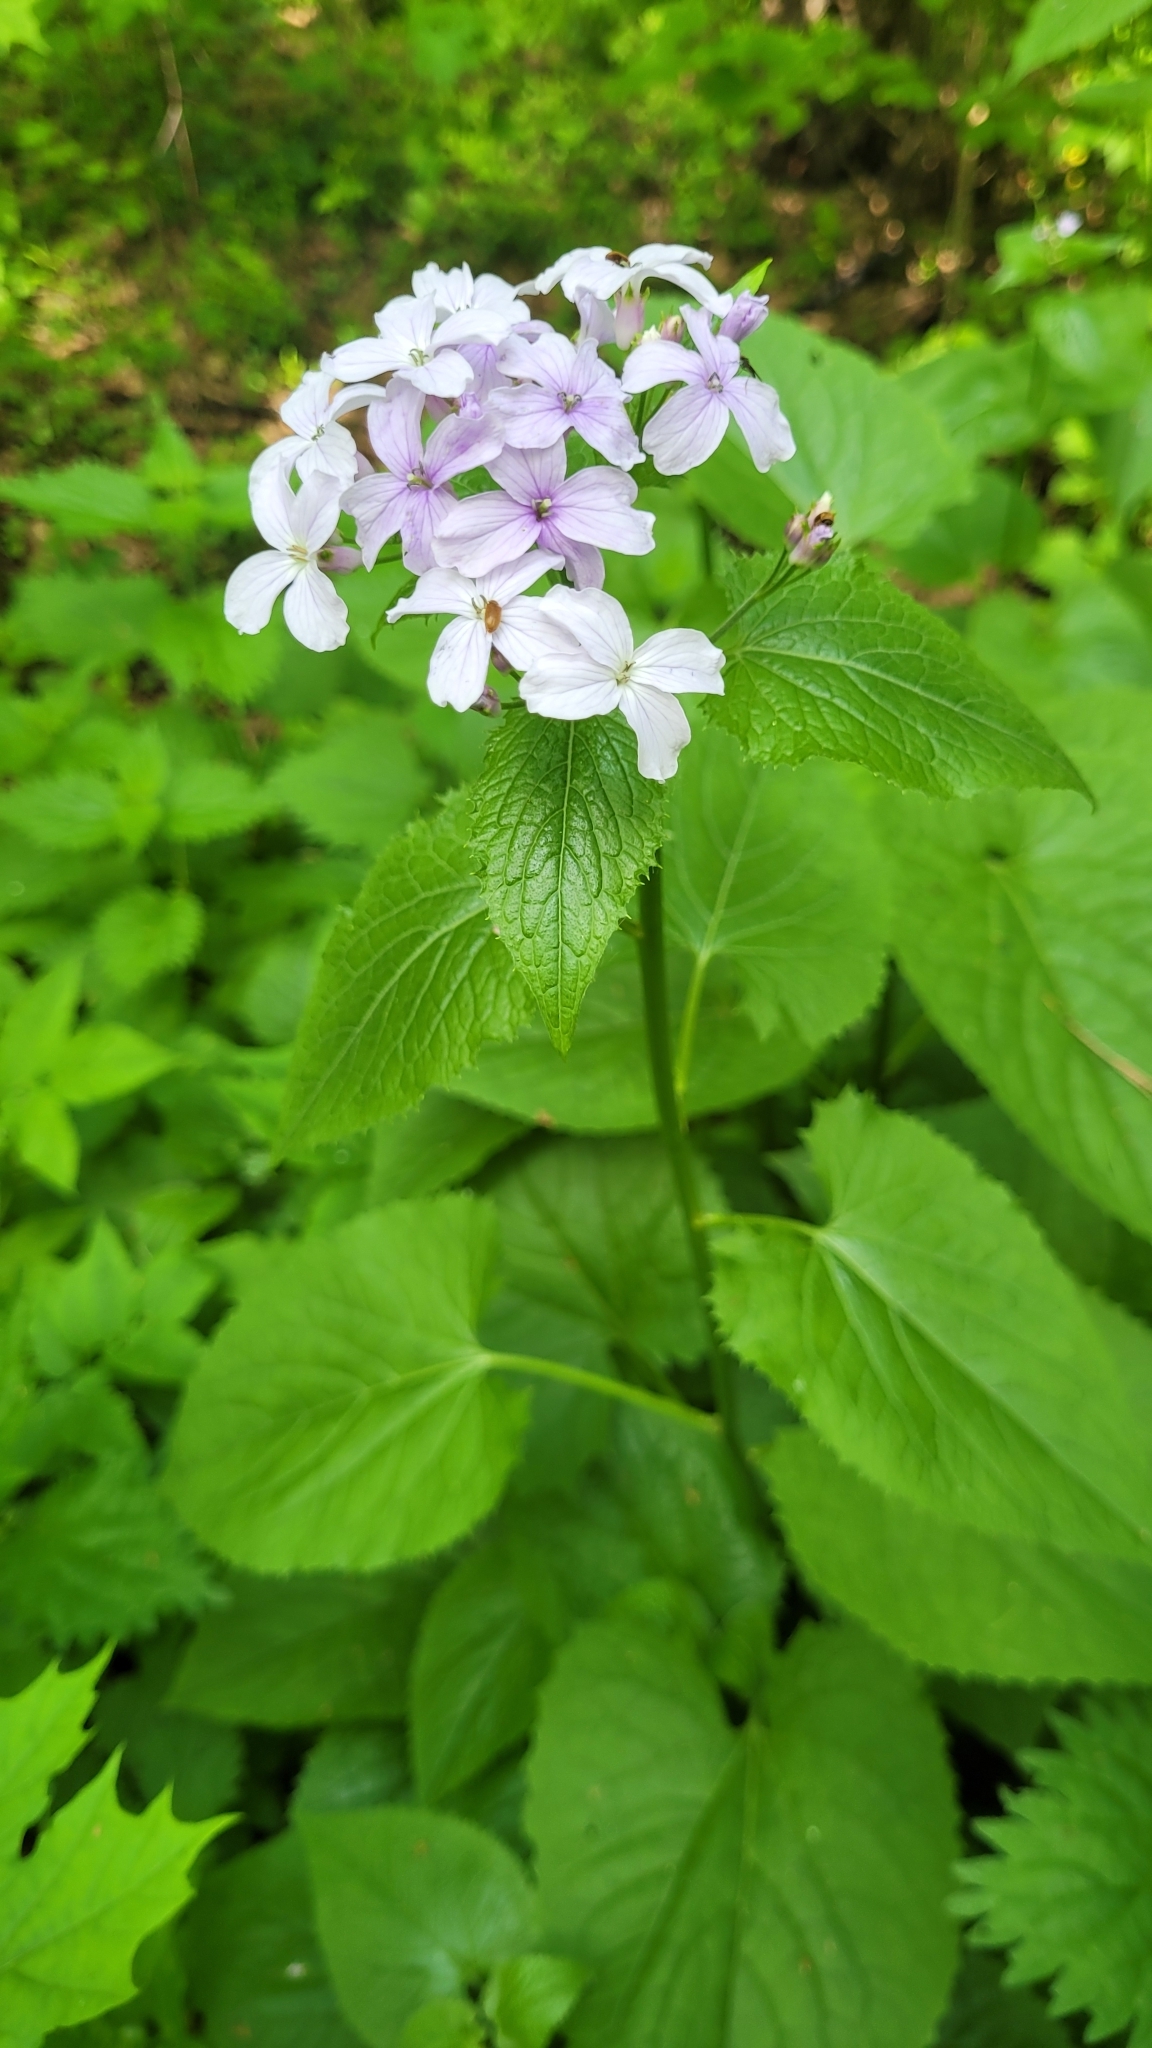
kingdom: Plantae
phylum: Tracheophyta
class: Magnoliopsida
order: Brassicales
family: Brassicaceae
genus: Lunaria
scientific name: Lunaria rediviva
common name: Perennial honesty
